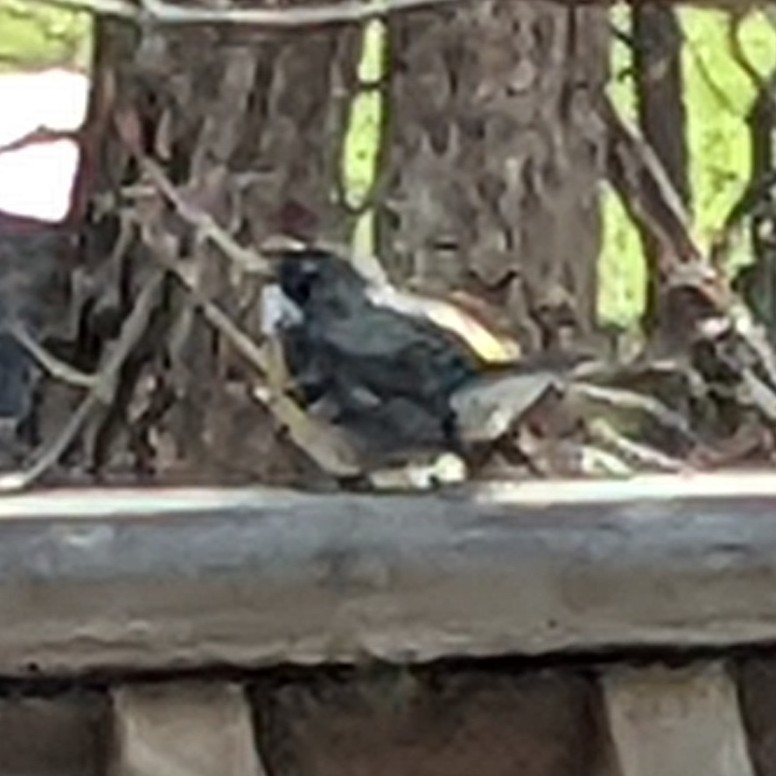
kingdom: Animalia
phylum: Chordata
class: Aves
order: Passeriformes
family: Parulidae
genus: Setophaga
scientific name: Setophaga coronata
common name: Myrtle warbler
